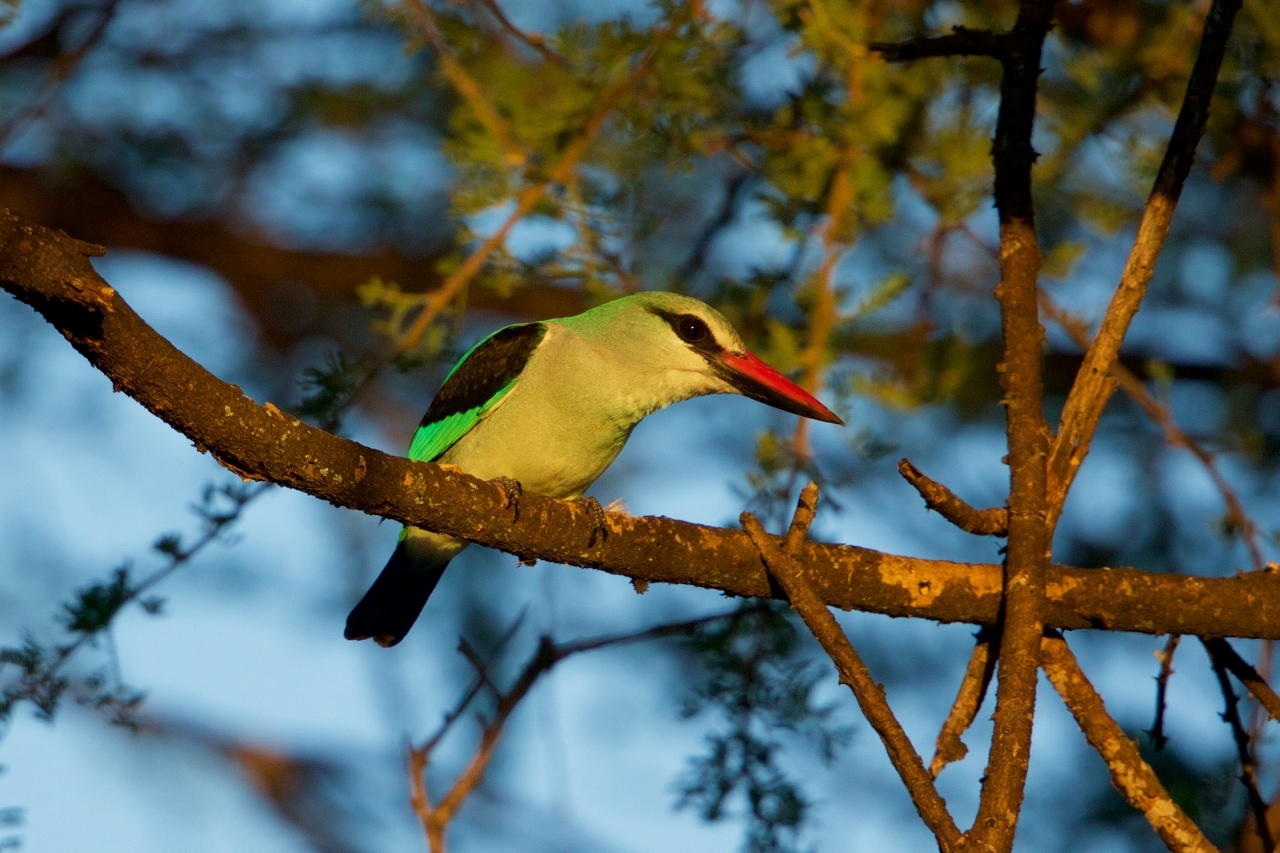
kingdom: Animalia
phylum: Chordata
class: Aves
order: Coraciiformes
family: Alcedinidae
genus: Halcyon
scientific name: Halcyon senegalensis
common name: Woodland kingfisher
